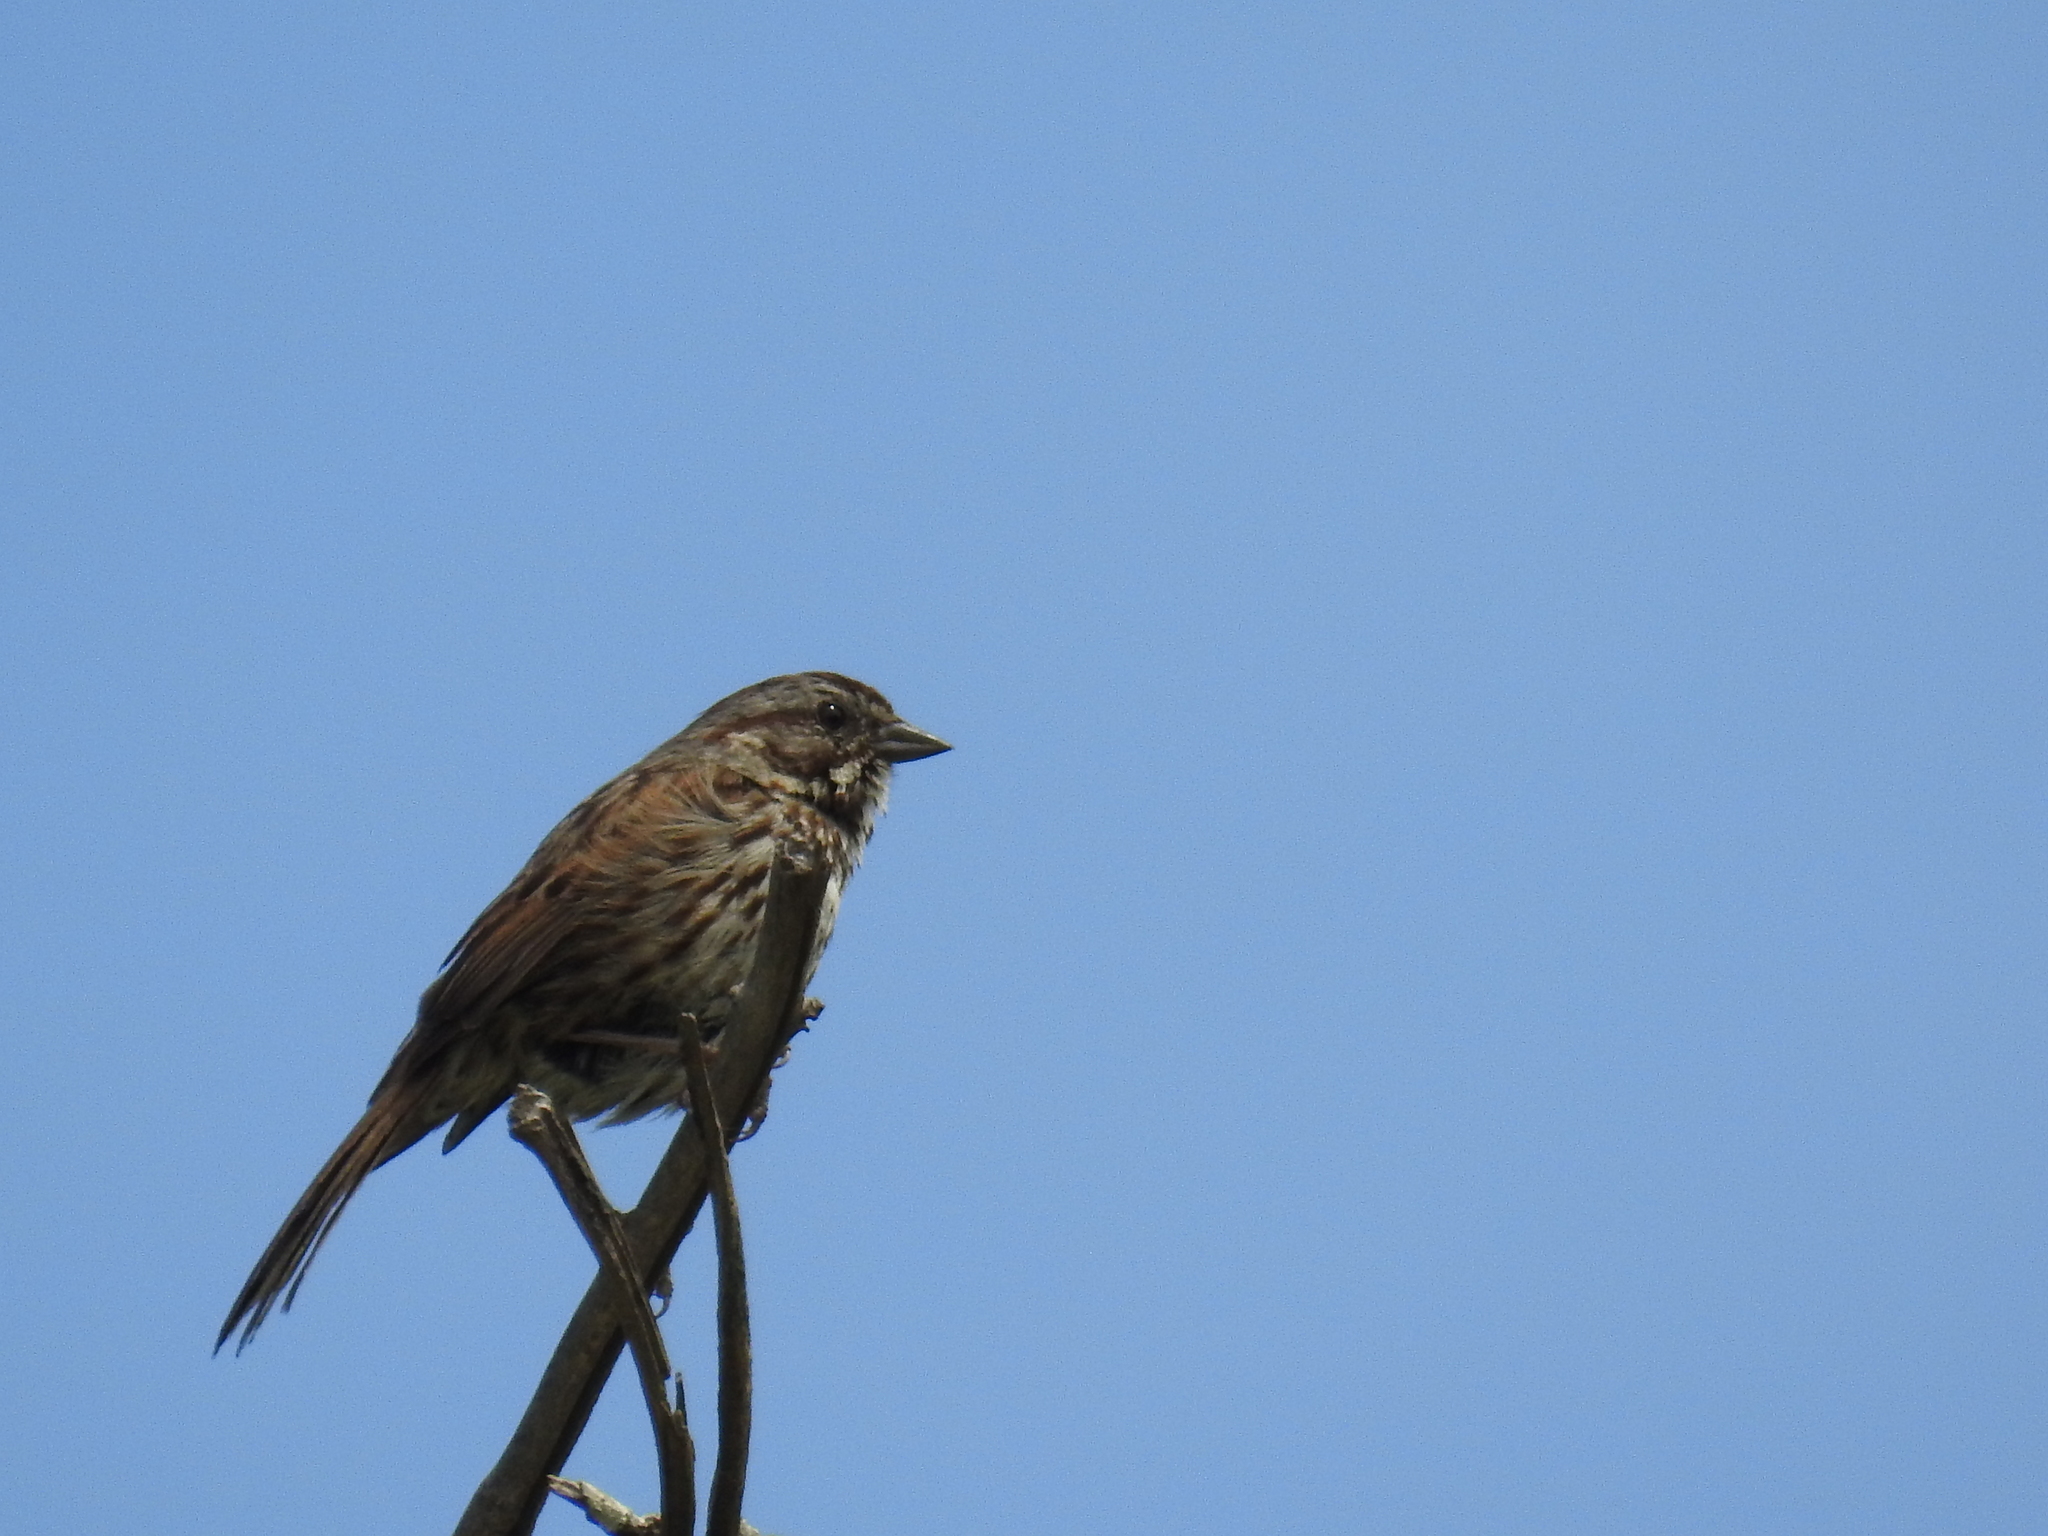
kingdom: Animalia
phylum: Chordata
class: Aves
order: Passeriformes
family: Passerellidae
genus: Melospiza
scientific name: Melospiza melodia
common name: Song sparrow
